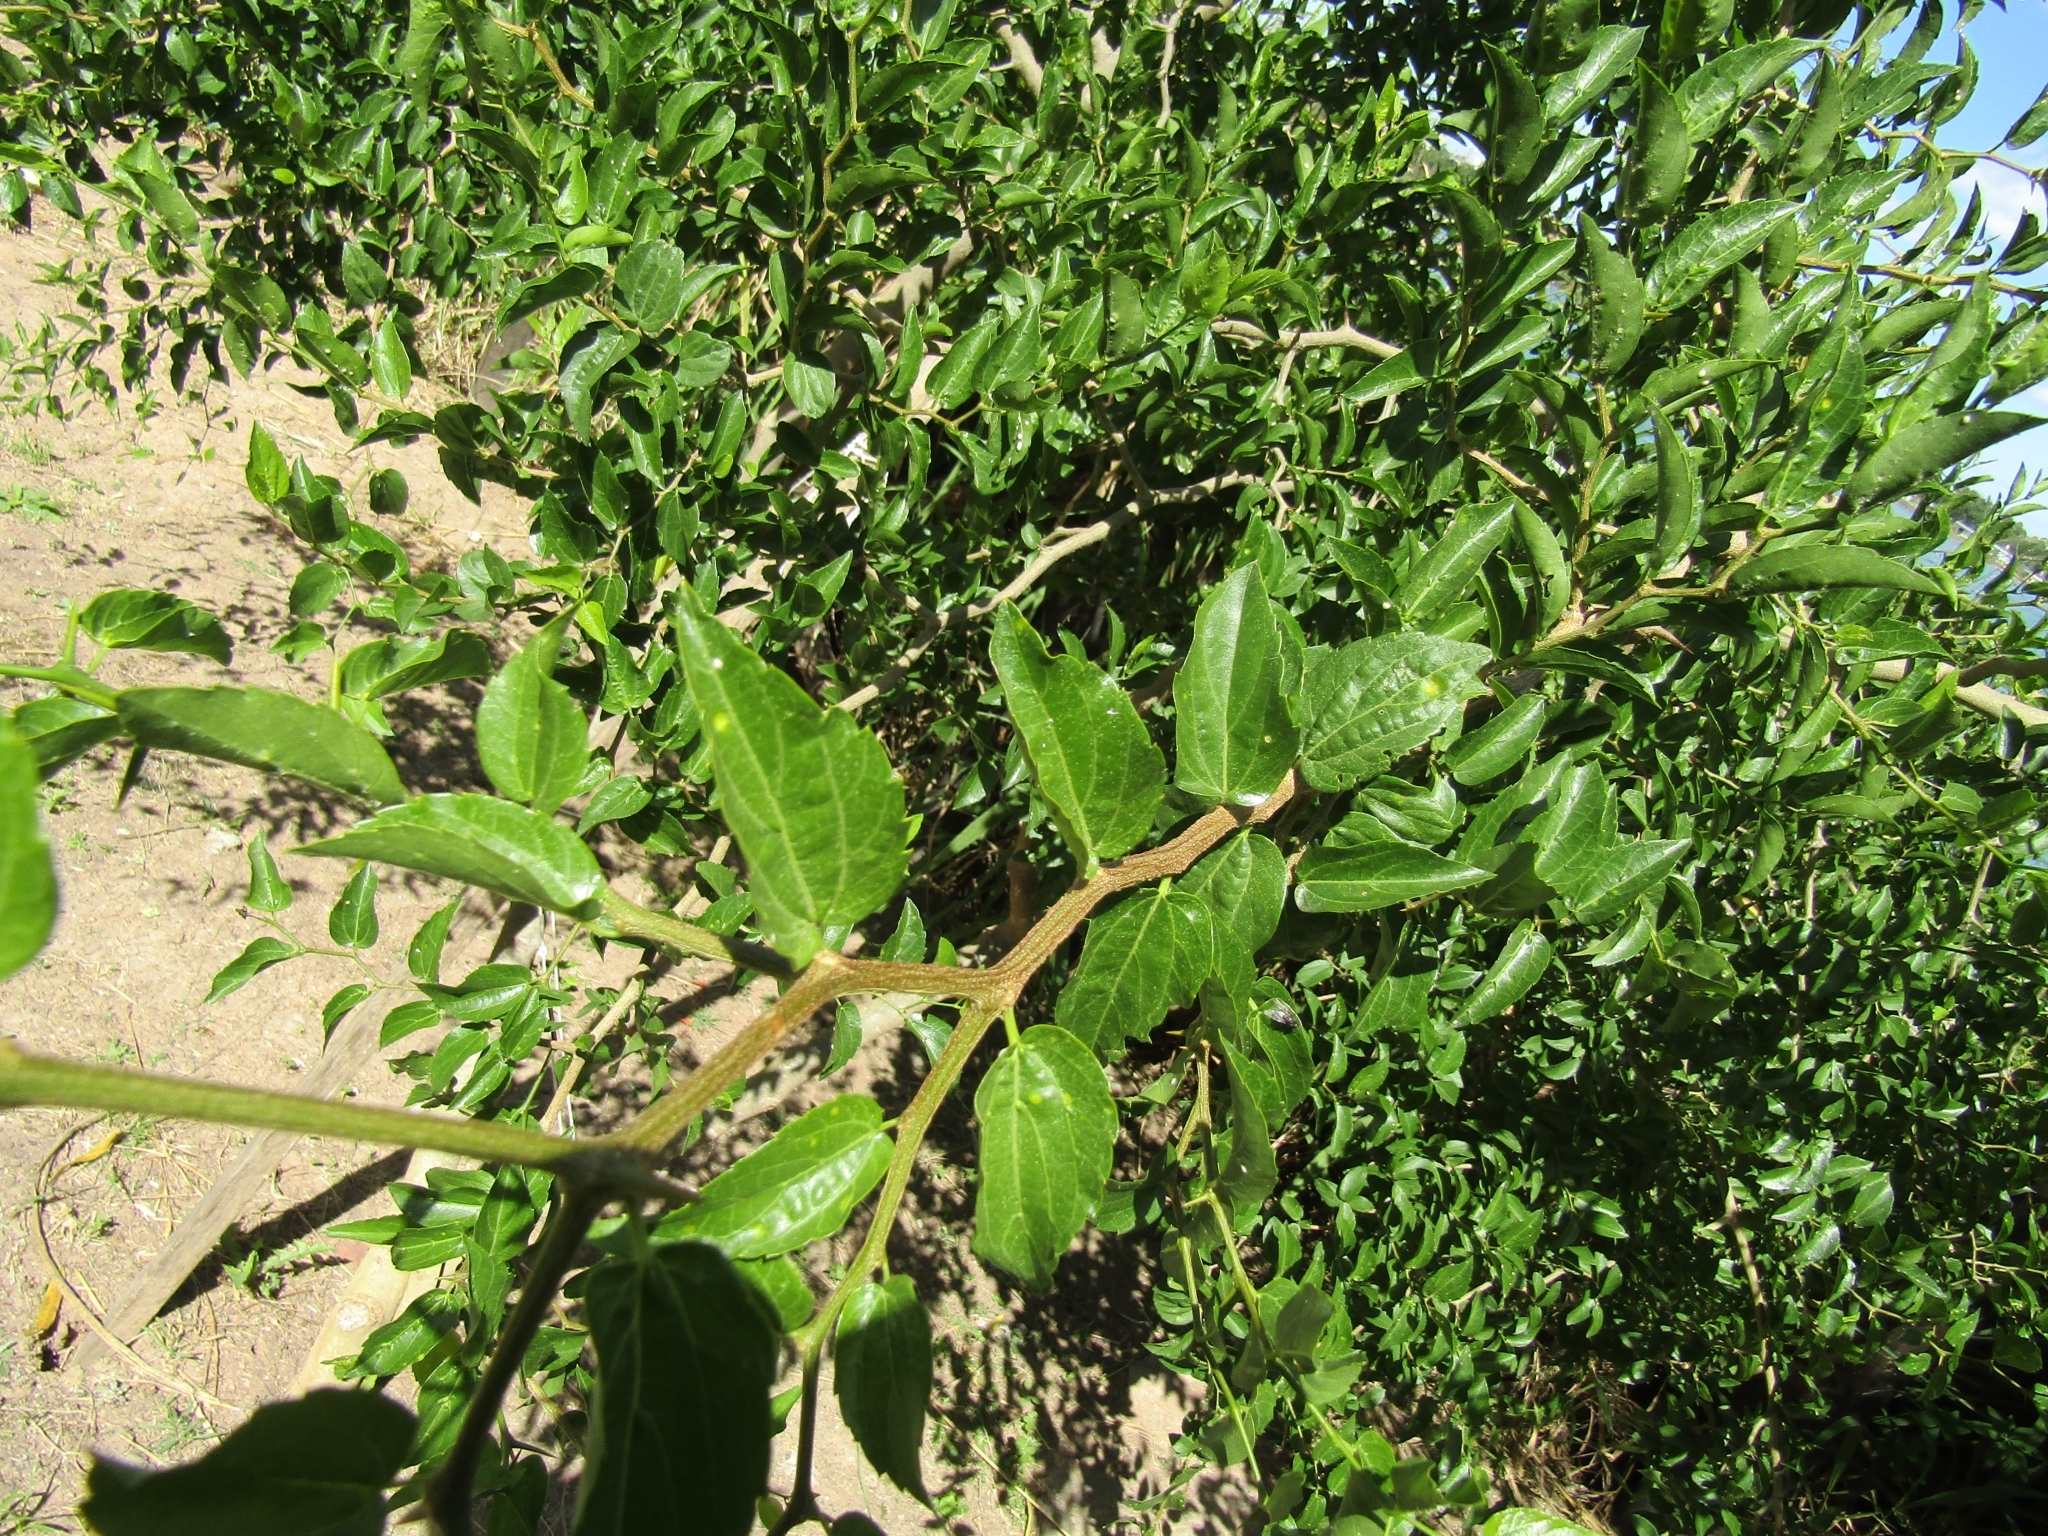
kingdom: Plantae
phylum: Tracheophyta
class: Magnoliopsida
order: Rosales
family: Cannabaceae
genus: Celtis
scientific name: Celtis tala
